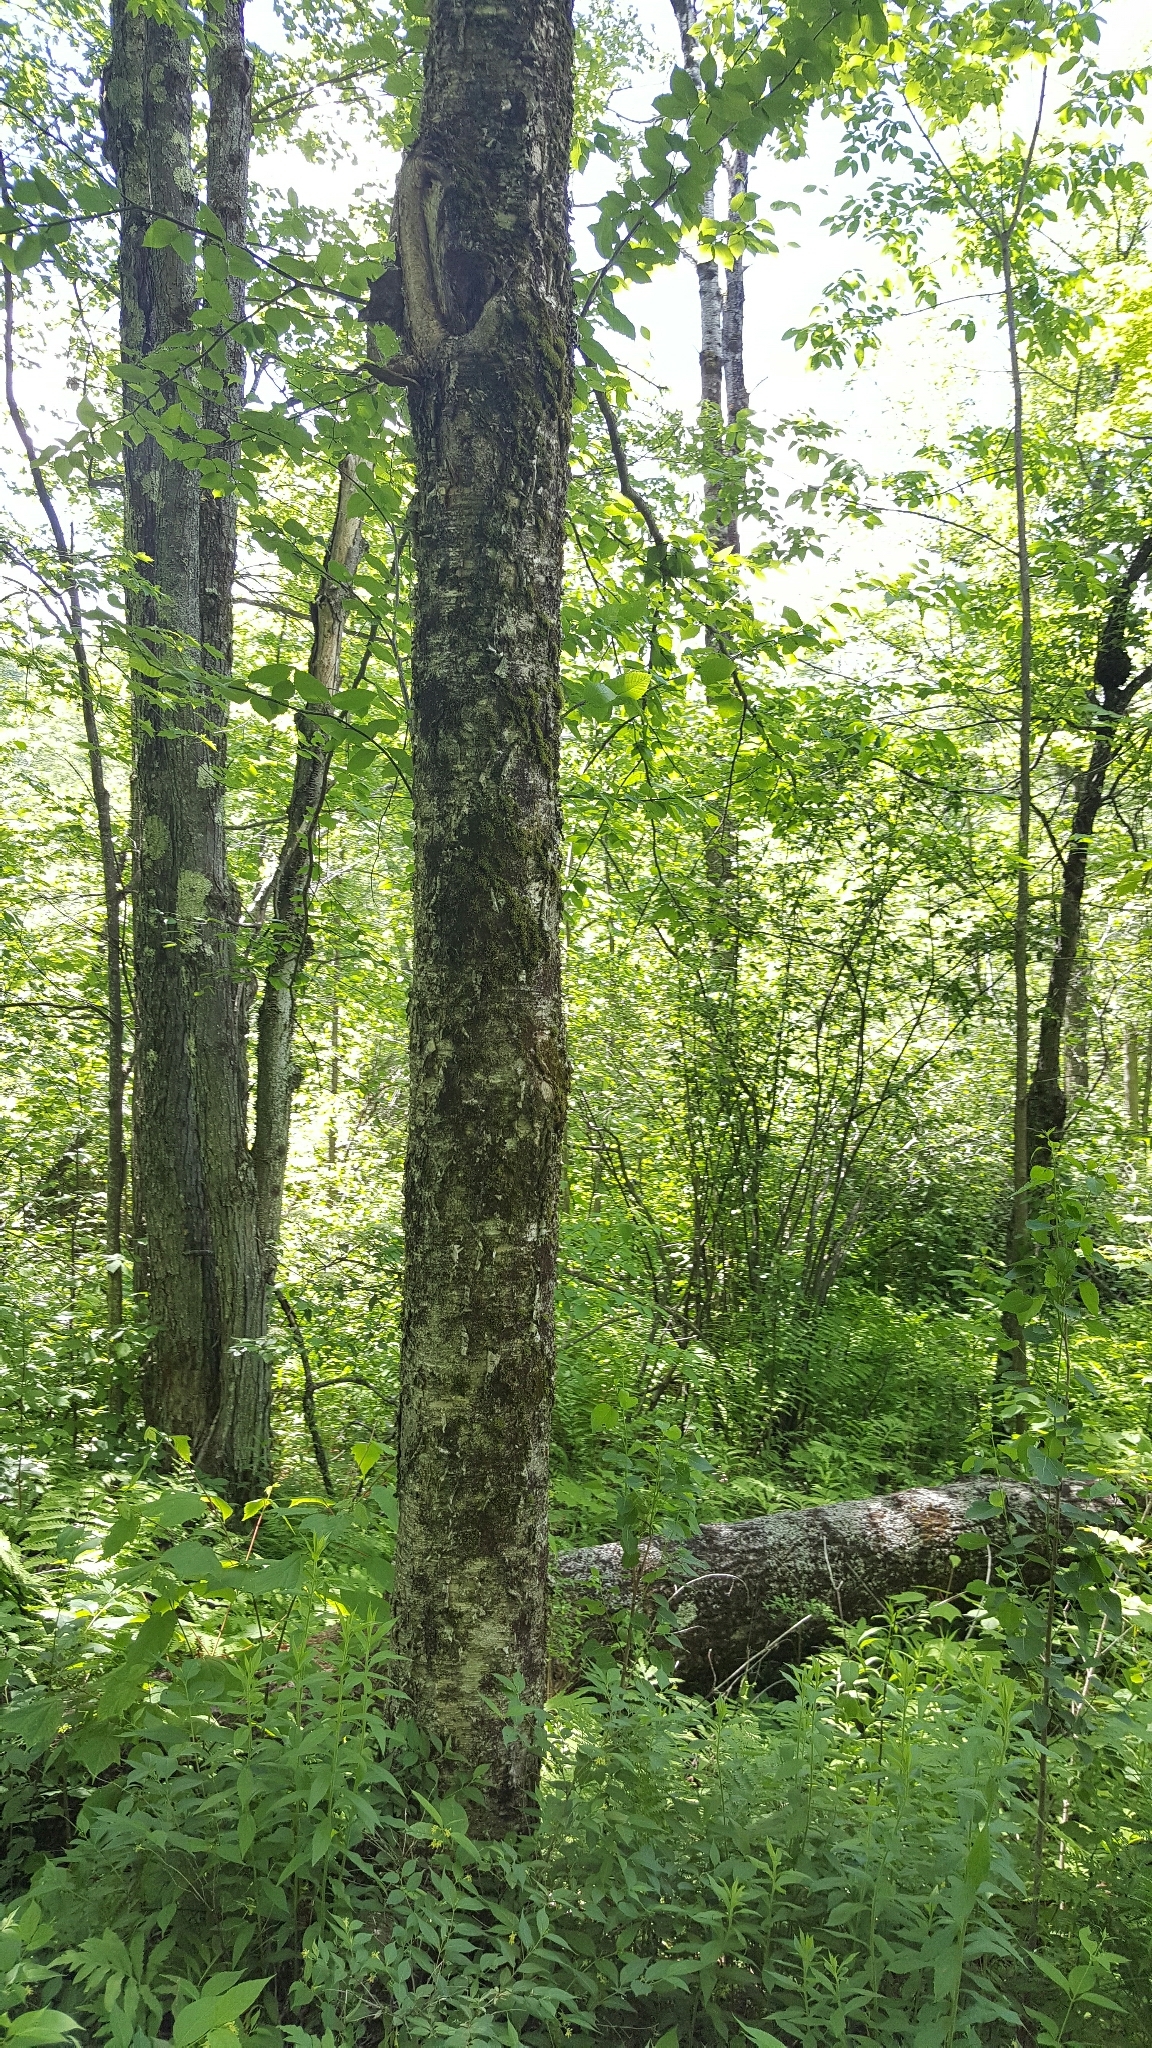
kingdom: Plantae
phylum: Tracheophyta
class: Magnoliopsida
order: Fagales
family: Betulaceae
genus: Betula
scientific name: Betula alleghaniensis
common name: Yellow birch
